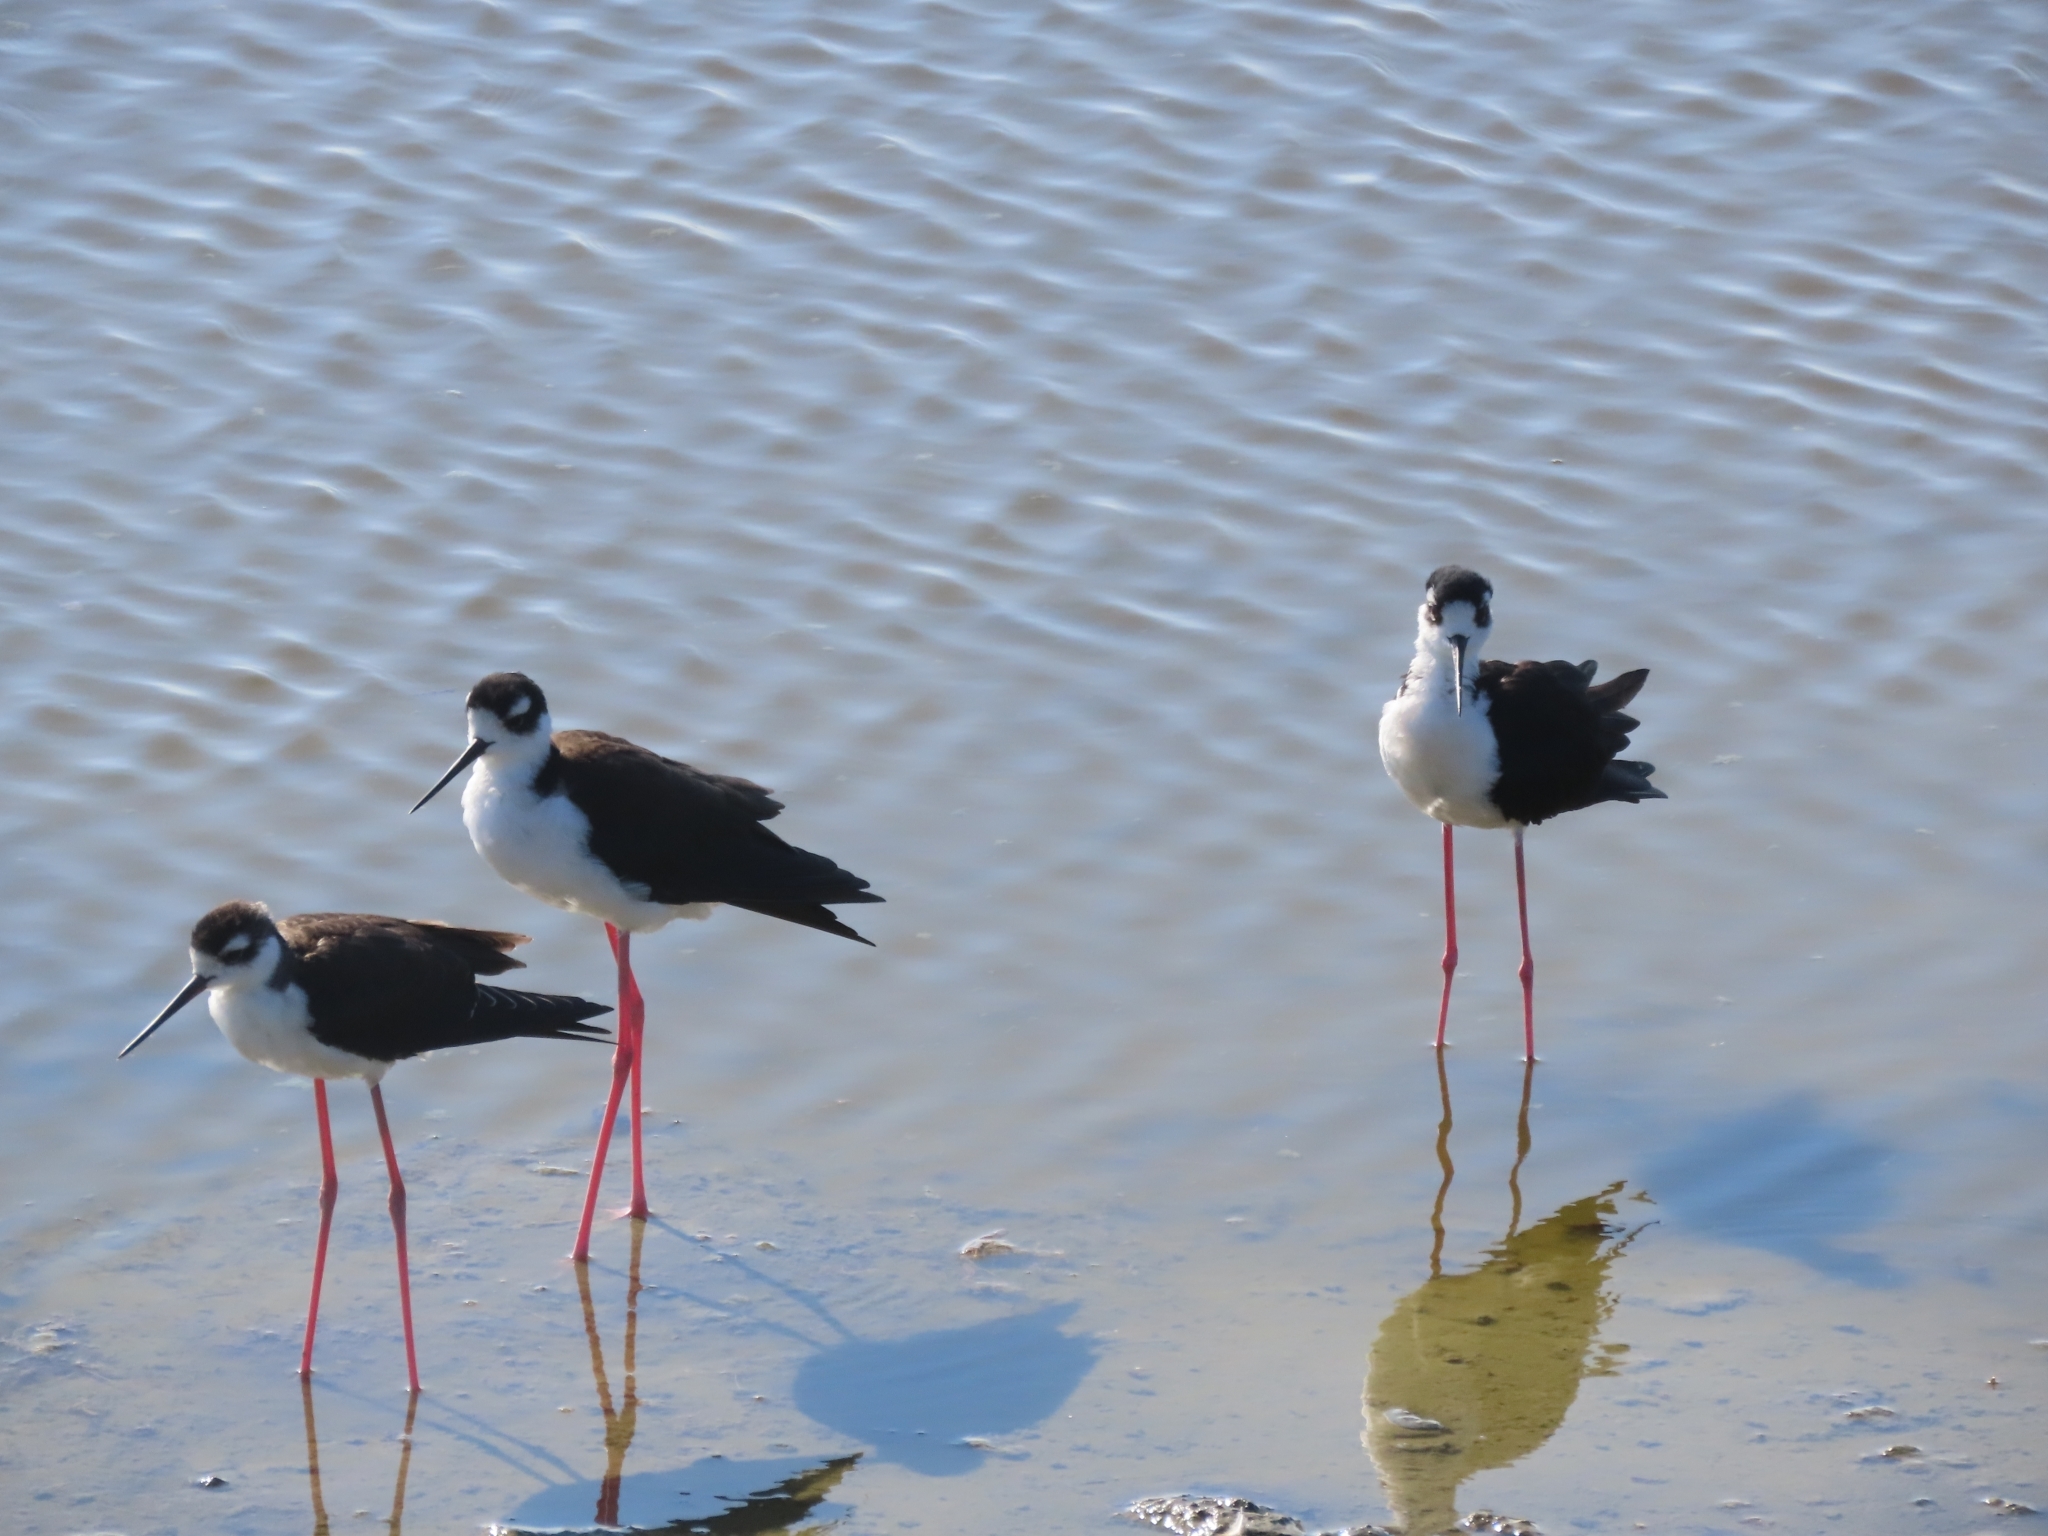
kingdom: Animalia
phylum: Chordata
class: Aves
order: Charadriiformes
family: Recurvirostridae
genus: Himantopus
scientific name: Himantopus mexicanus
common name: Black-necked stilt
